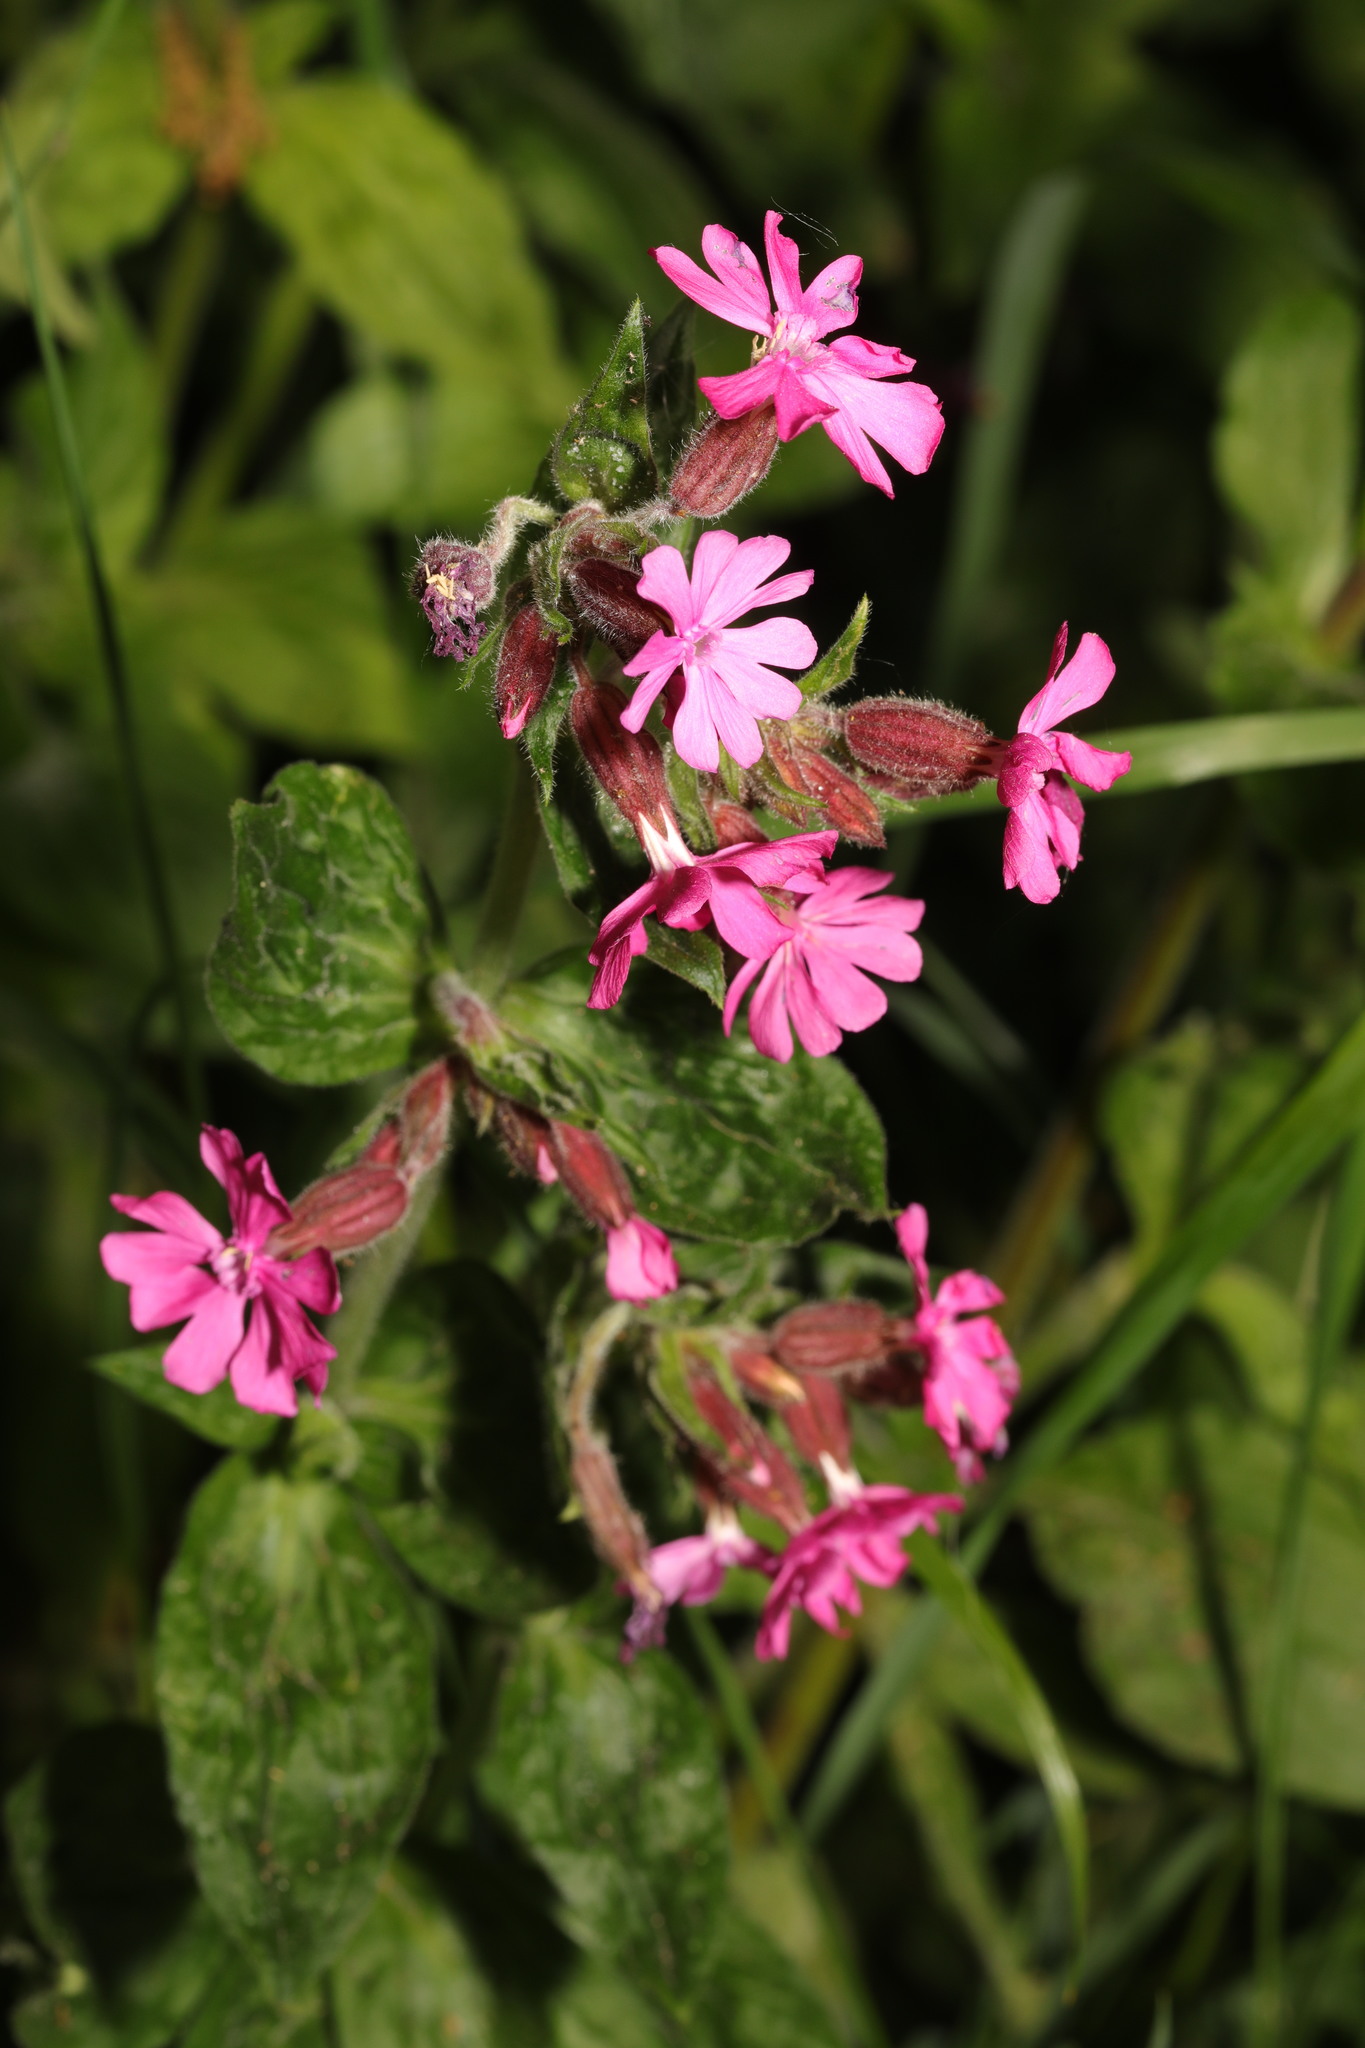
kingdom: Plantae
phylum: Tracheophyta
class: Magnoliopsida
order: Caryophyllales
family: Caryophyllaceae
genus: Silene
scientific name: Silene dioica
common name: Red campion
